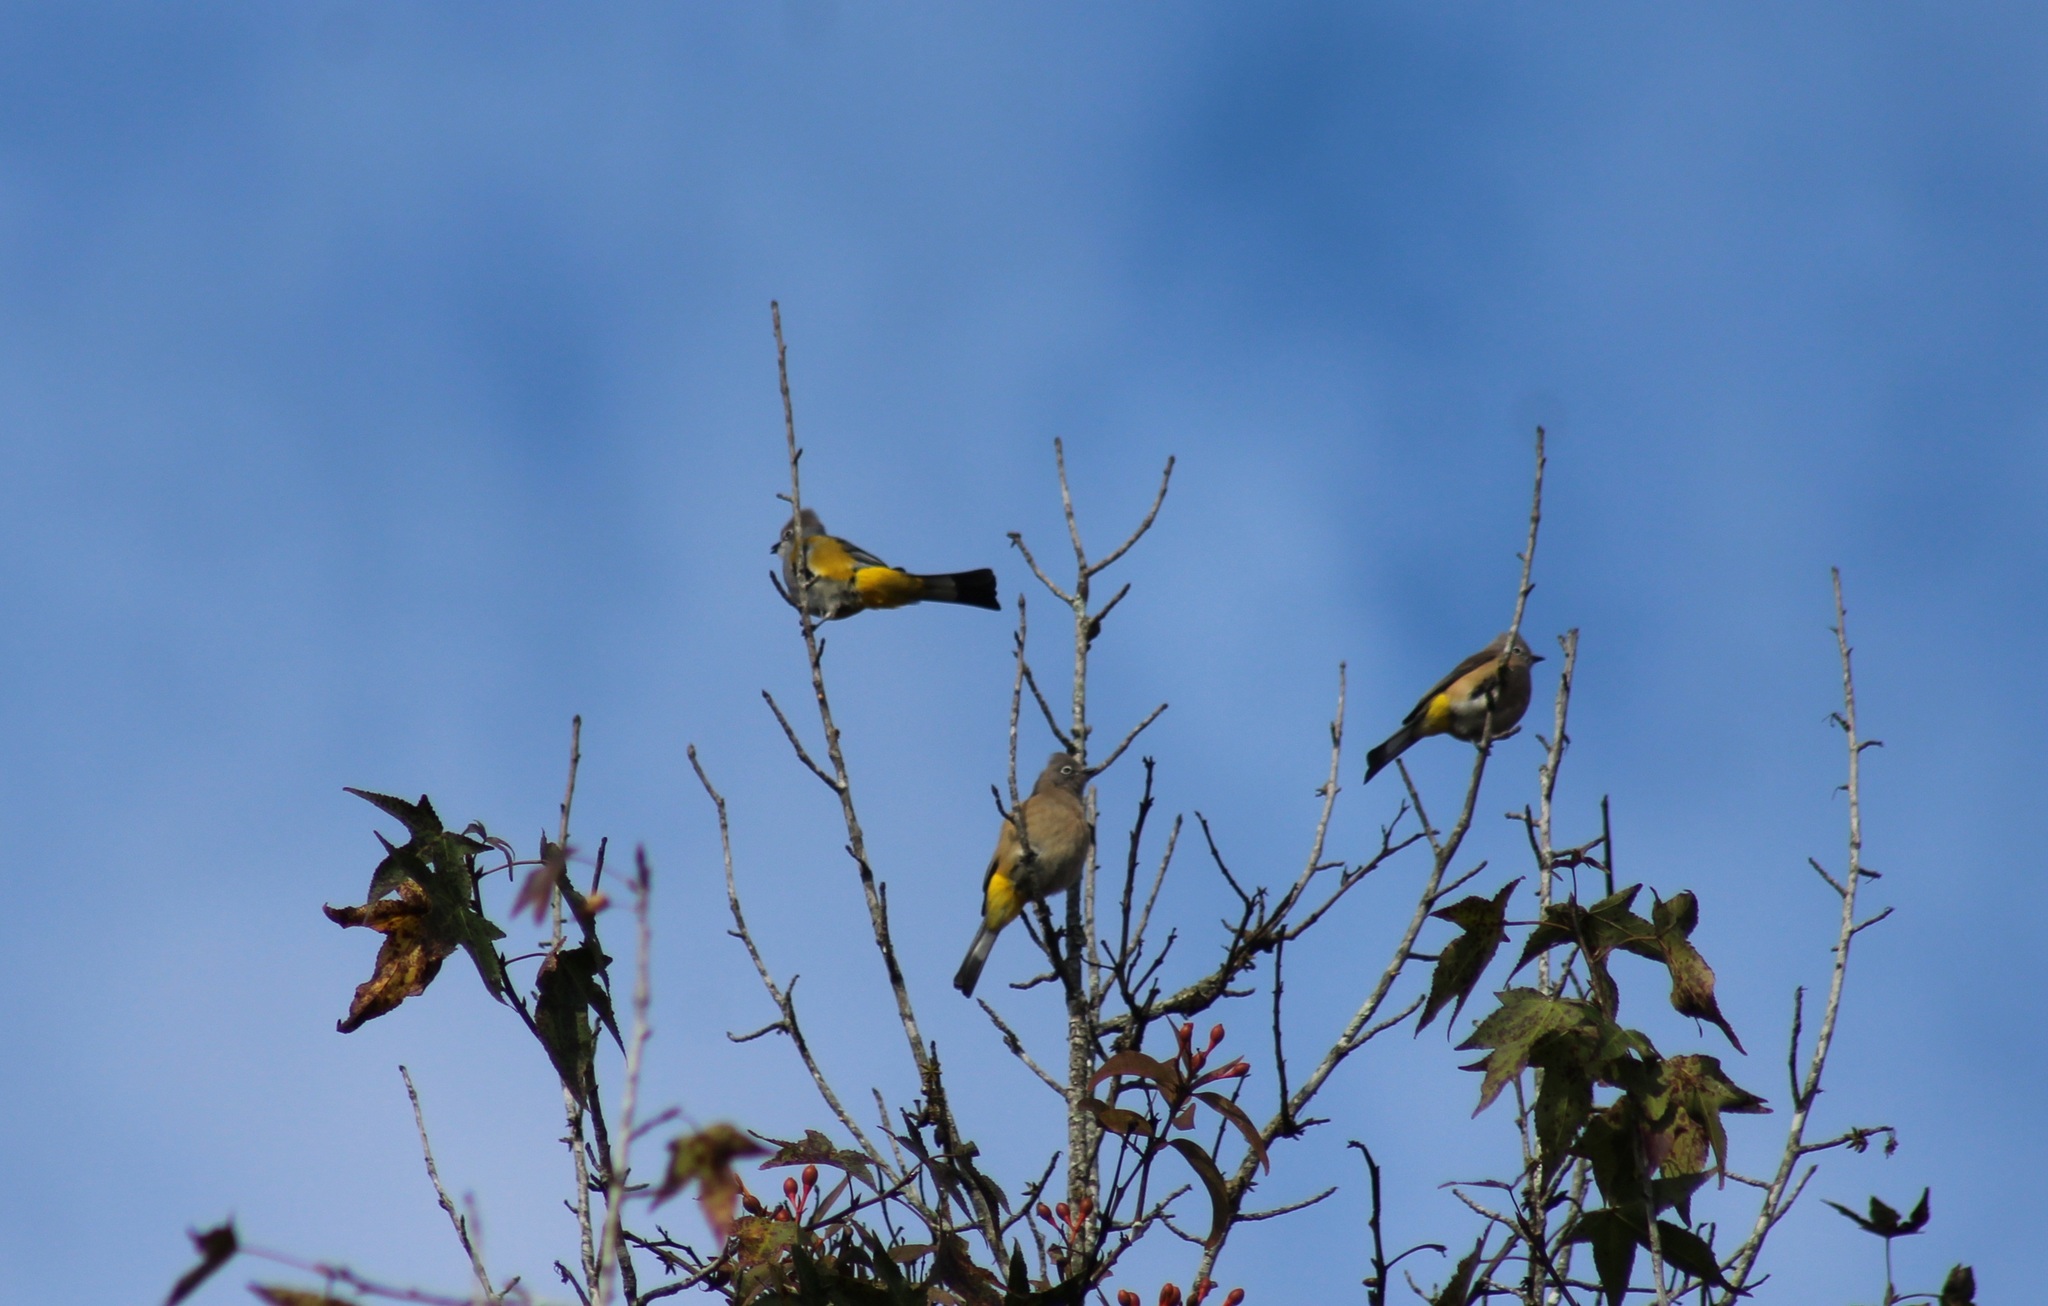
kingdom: Animalia
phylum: Chordata
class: Aves
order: Passeriformes
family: Ptilogonatidae
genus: Ptilogonys
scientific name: Ptilogonys cinereus
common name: Gray silky-flycatcher
